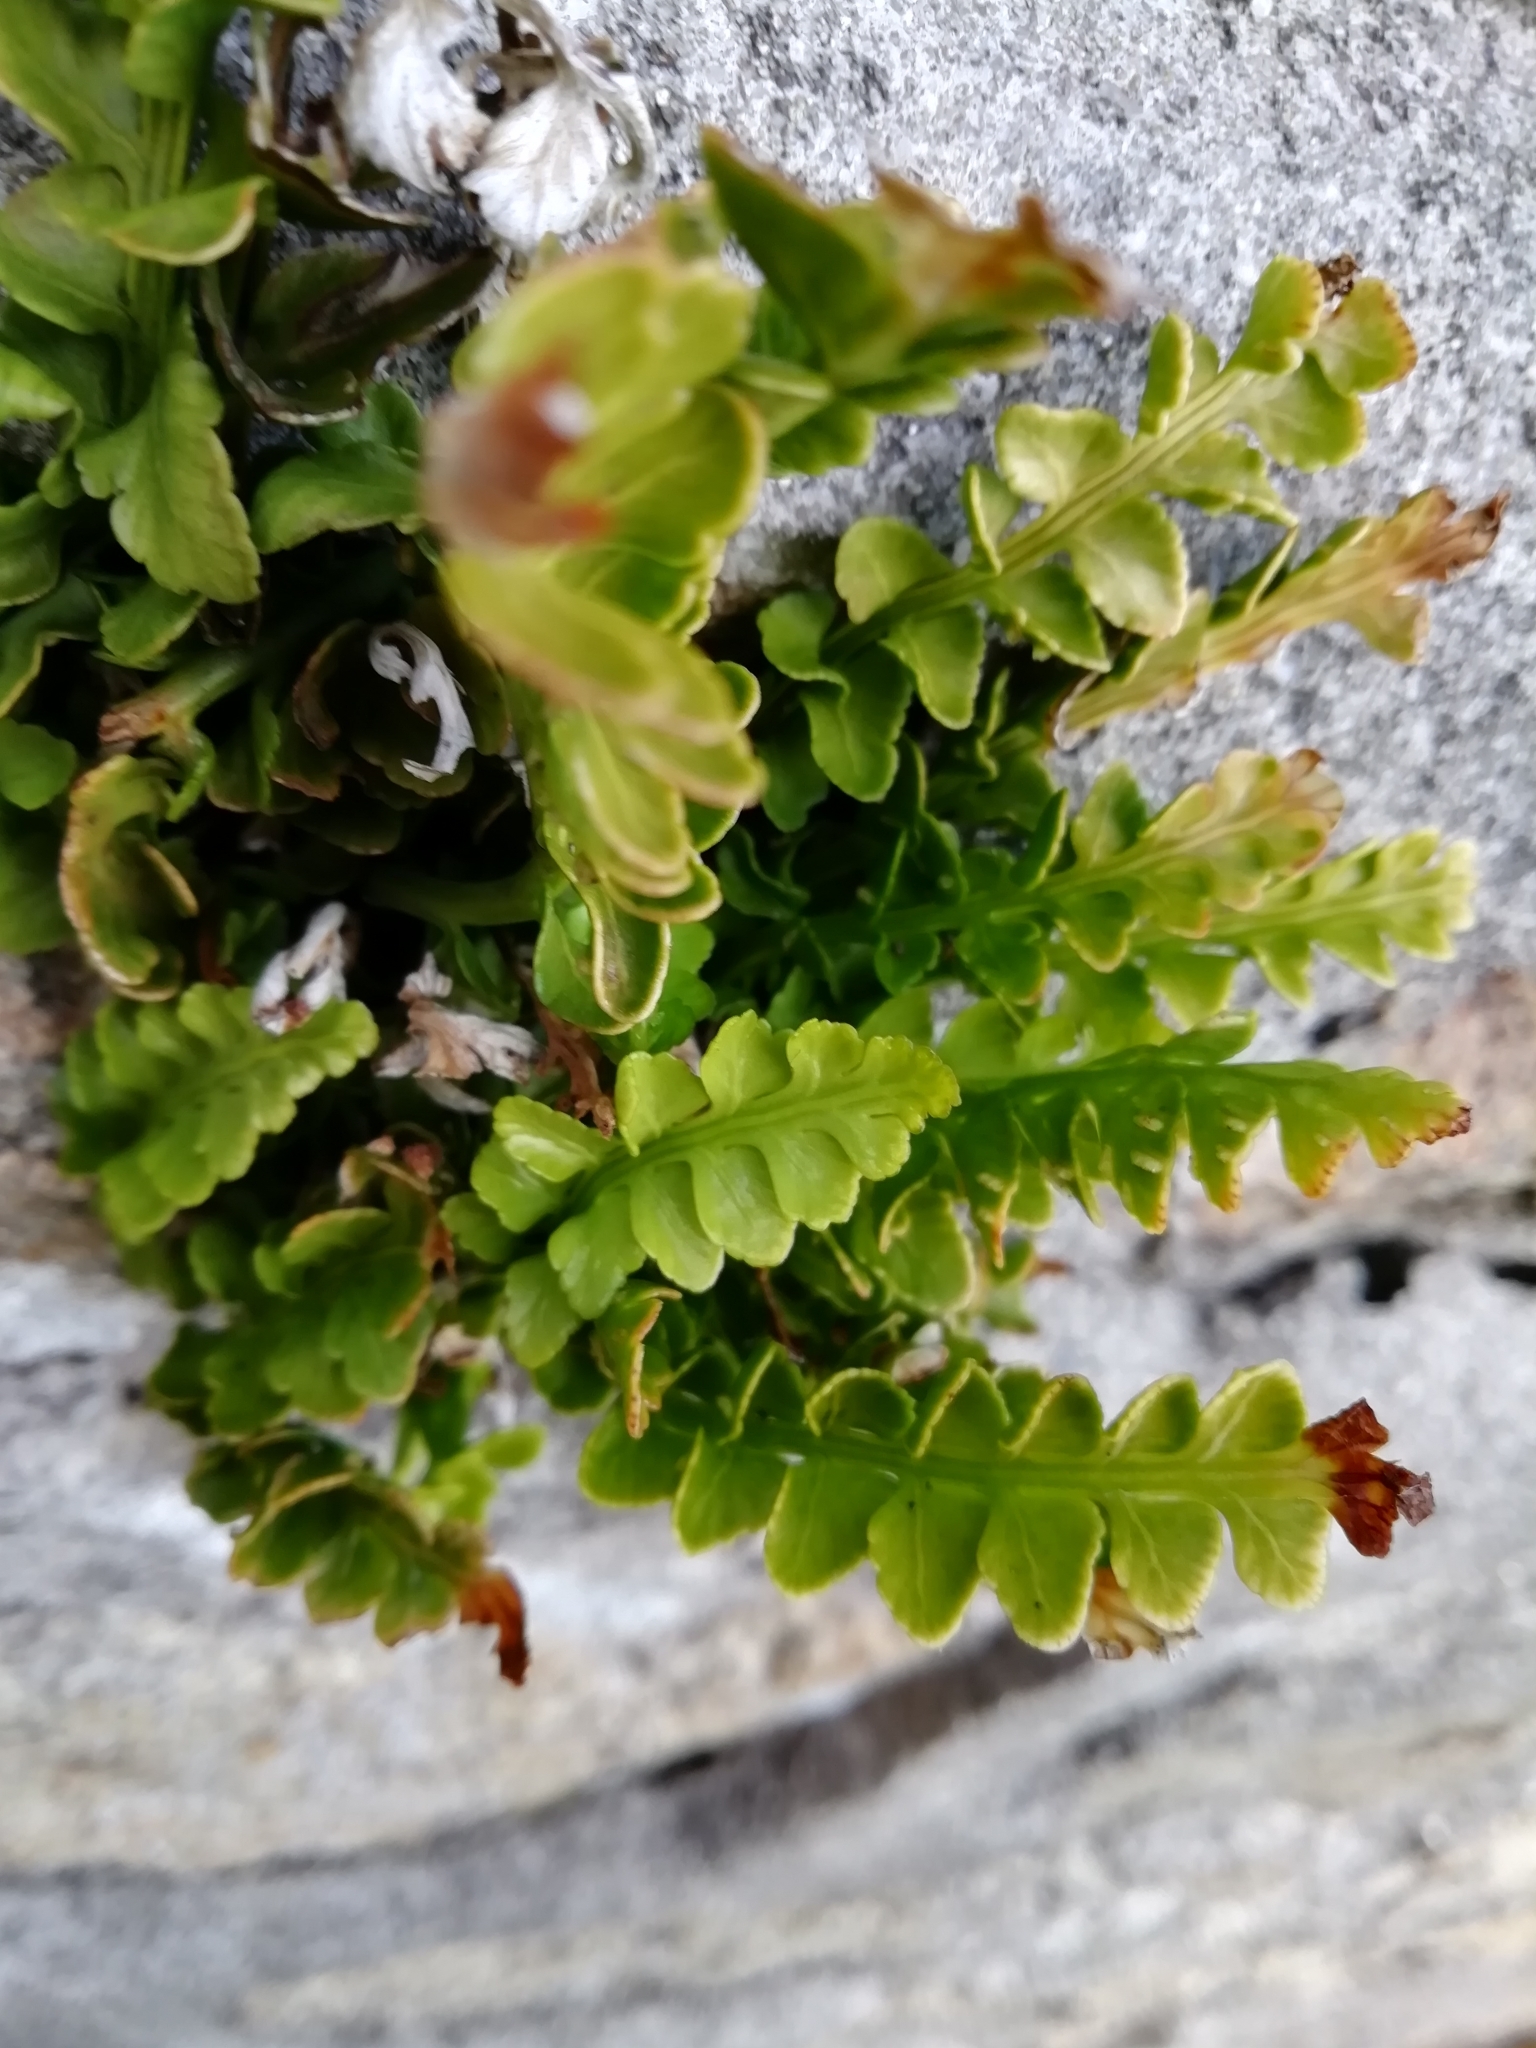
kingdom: Plantae
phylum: Tracheophyta
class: Polypodiopsida
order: Polypodiales
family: Aspleniaceae
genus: Asplenium
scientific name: Asplenium marinum
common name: Sea spleenwort
